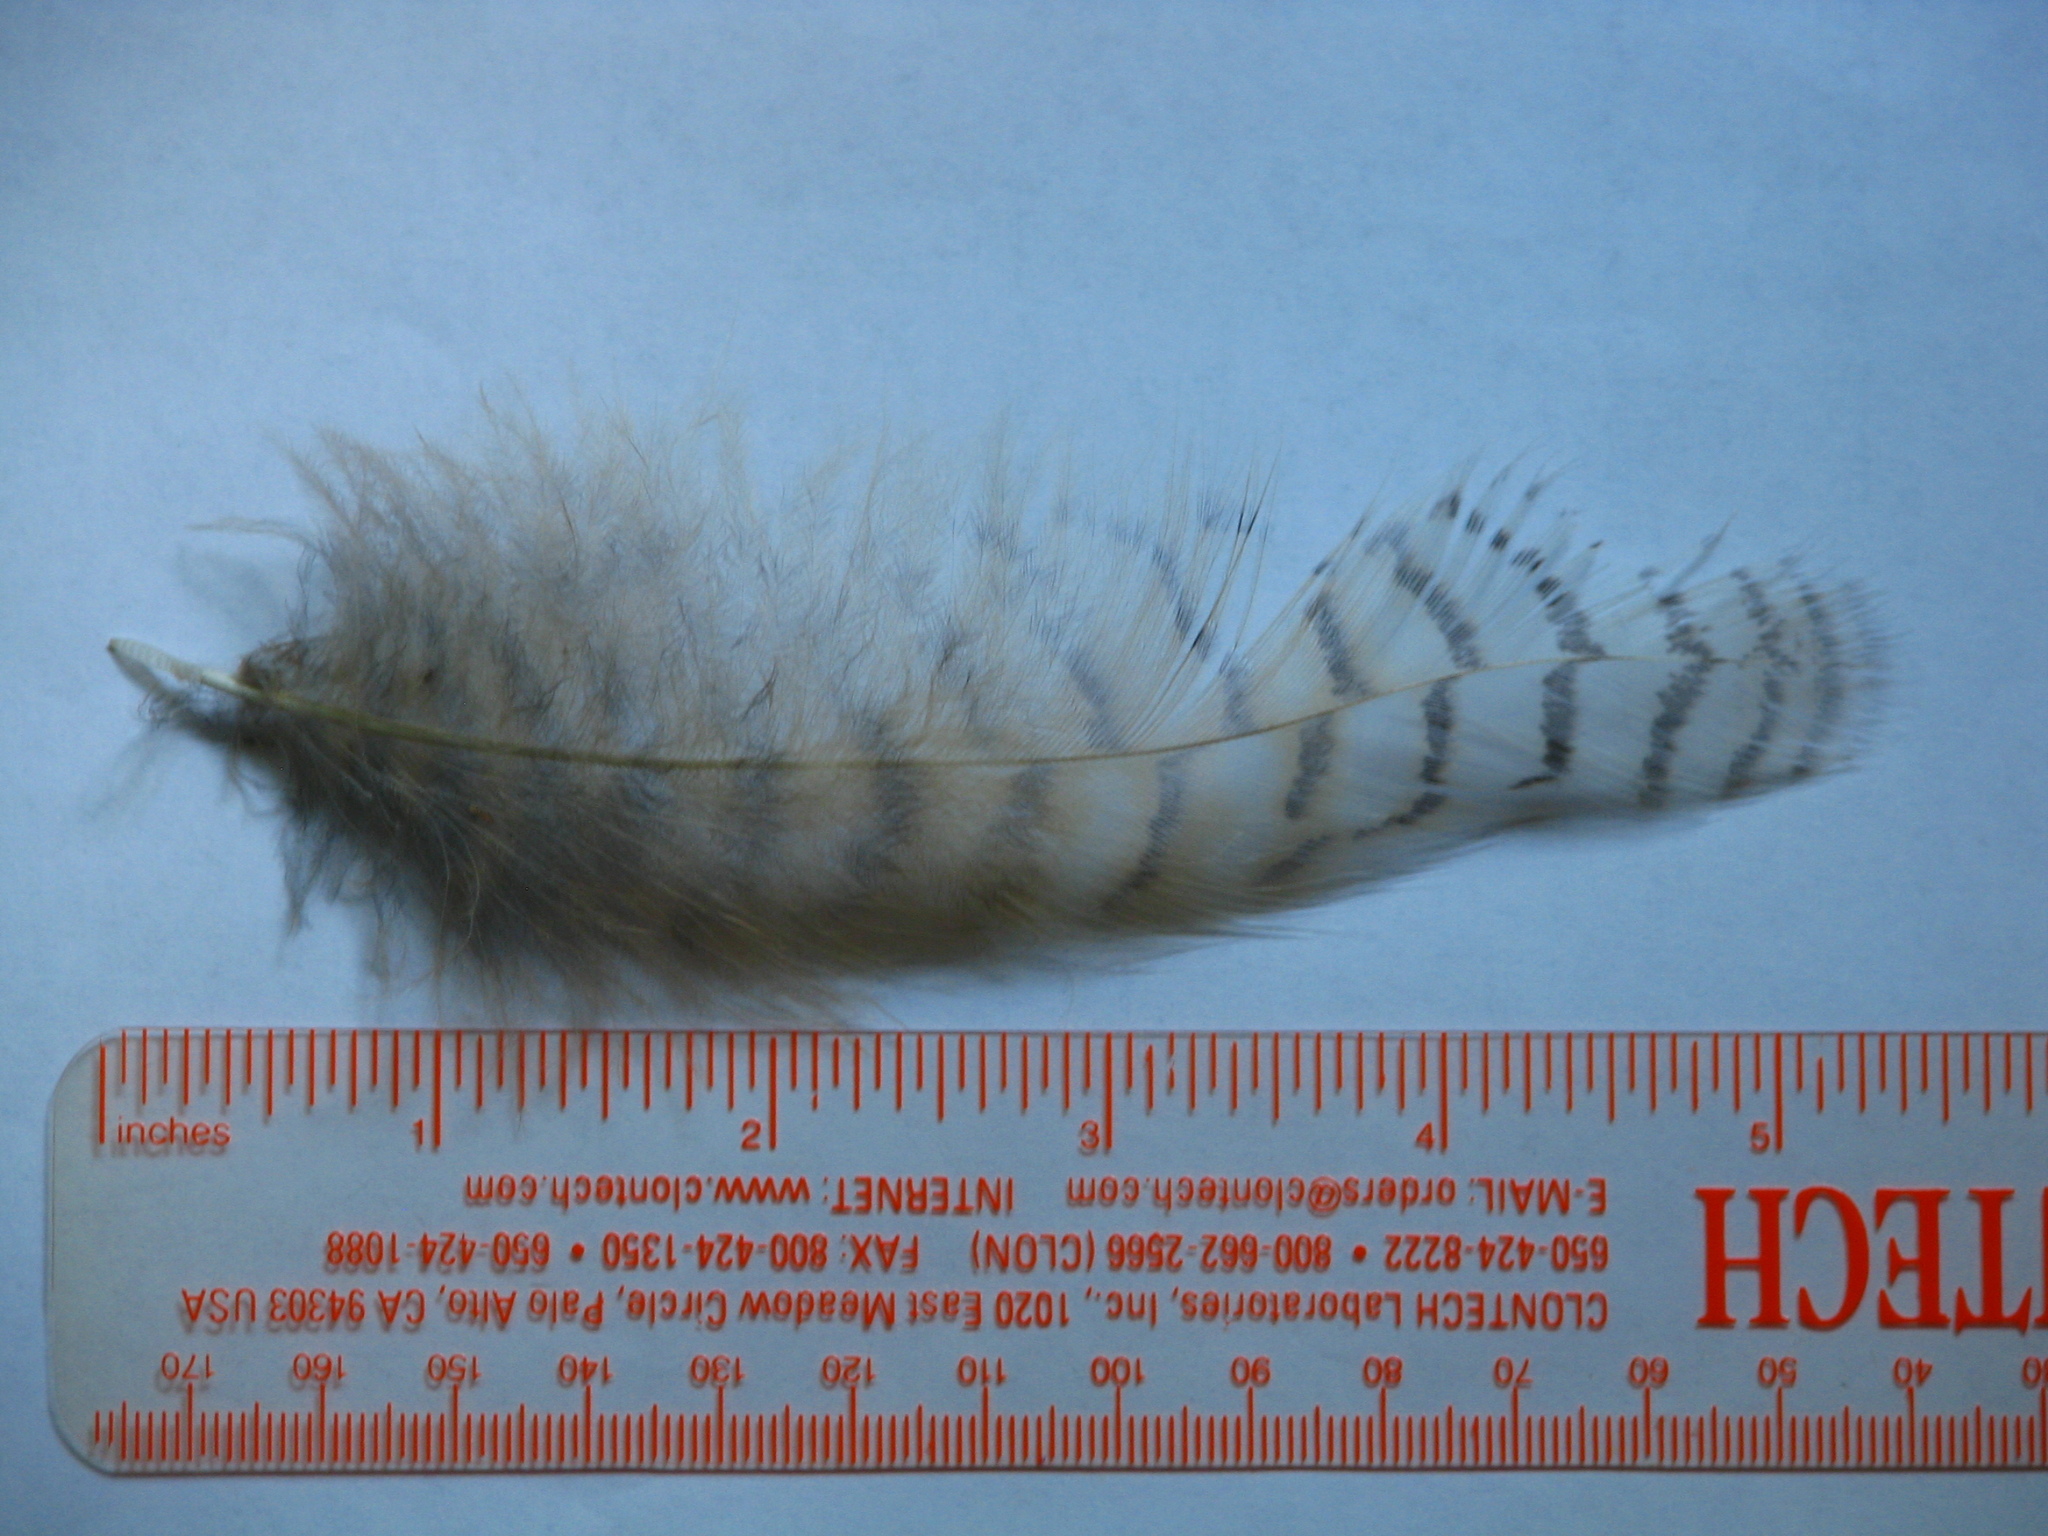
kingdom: Animalia
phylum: Chordata
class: Aves
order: Strigiformes
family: Strigidae
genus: Bubo
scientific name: Bubo virginianus
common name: Great horned owl
